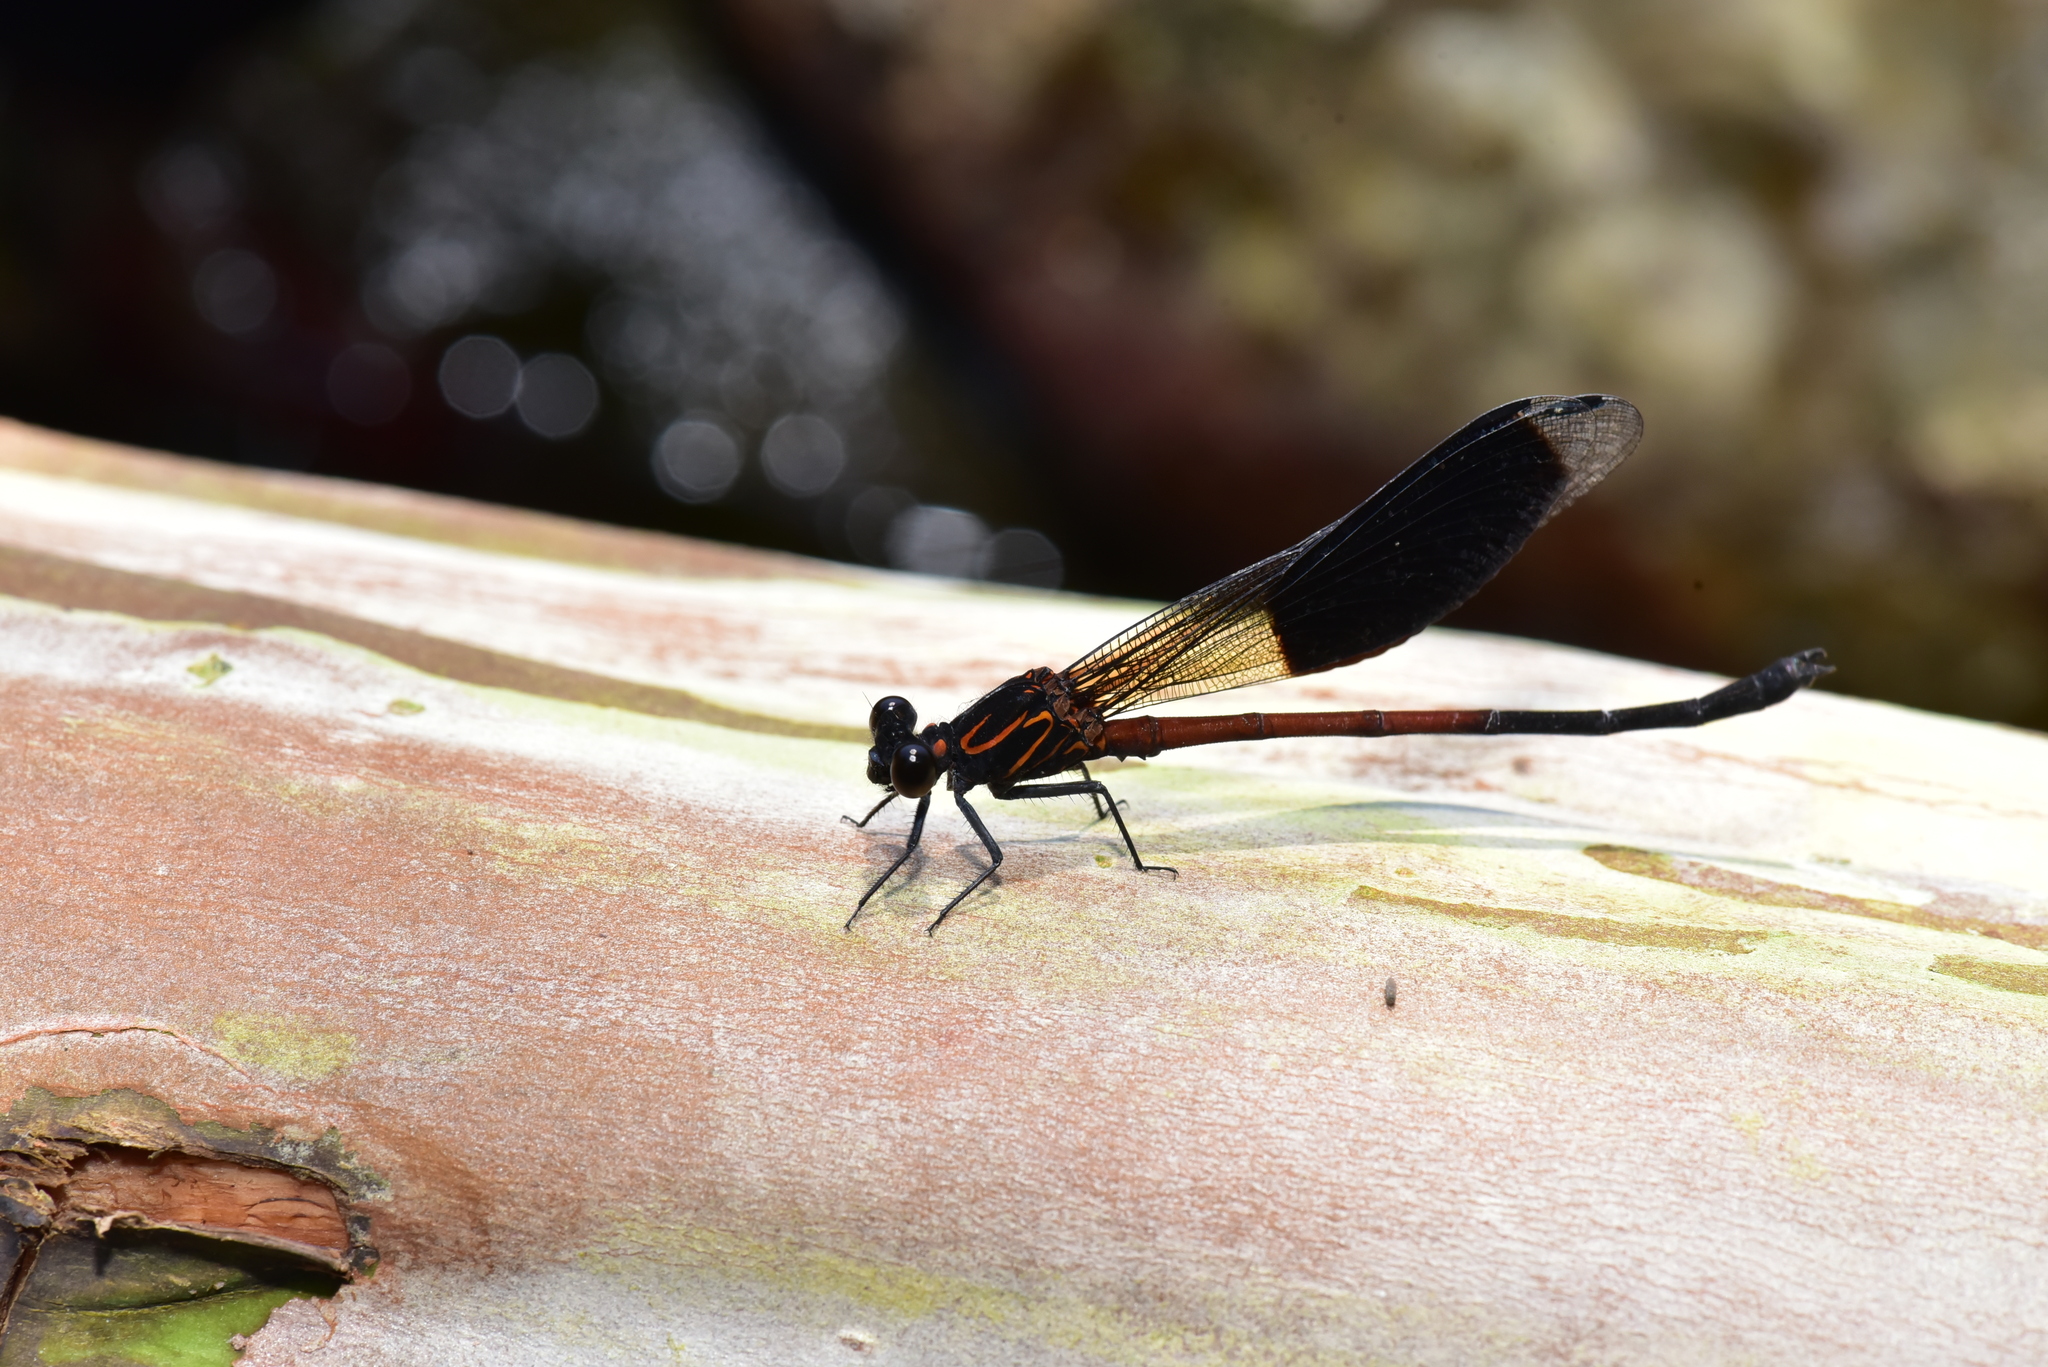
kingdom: Animalia
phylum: Arthropoda
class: Insecta
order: Odonata
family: Euphaeidae
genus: Euphaea
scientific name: Euphaea formosa
